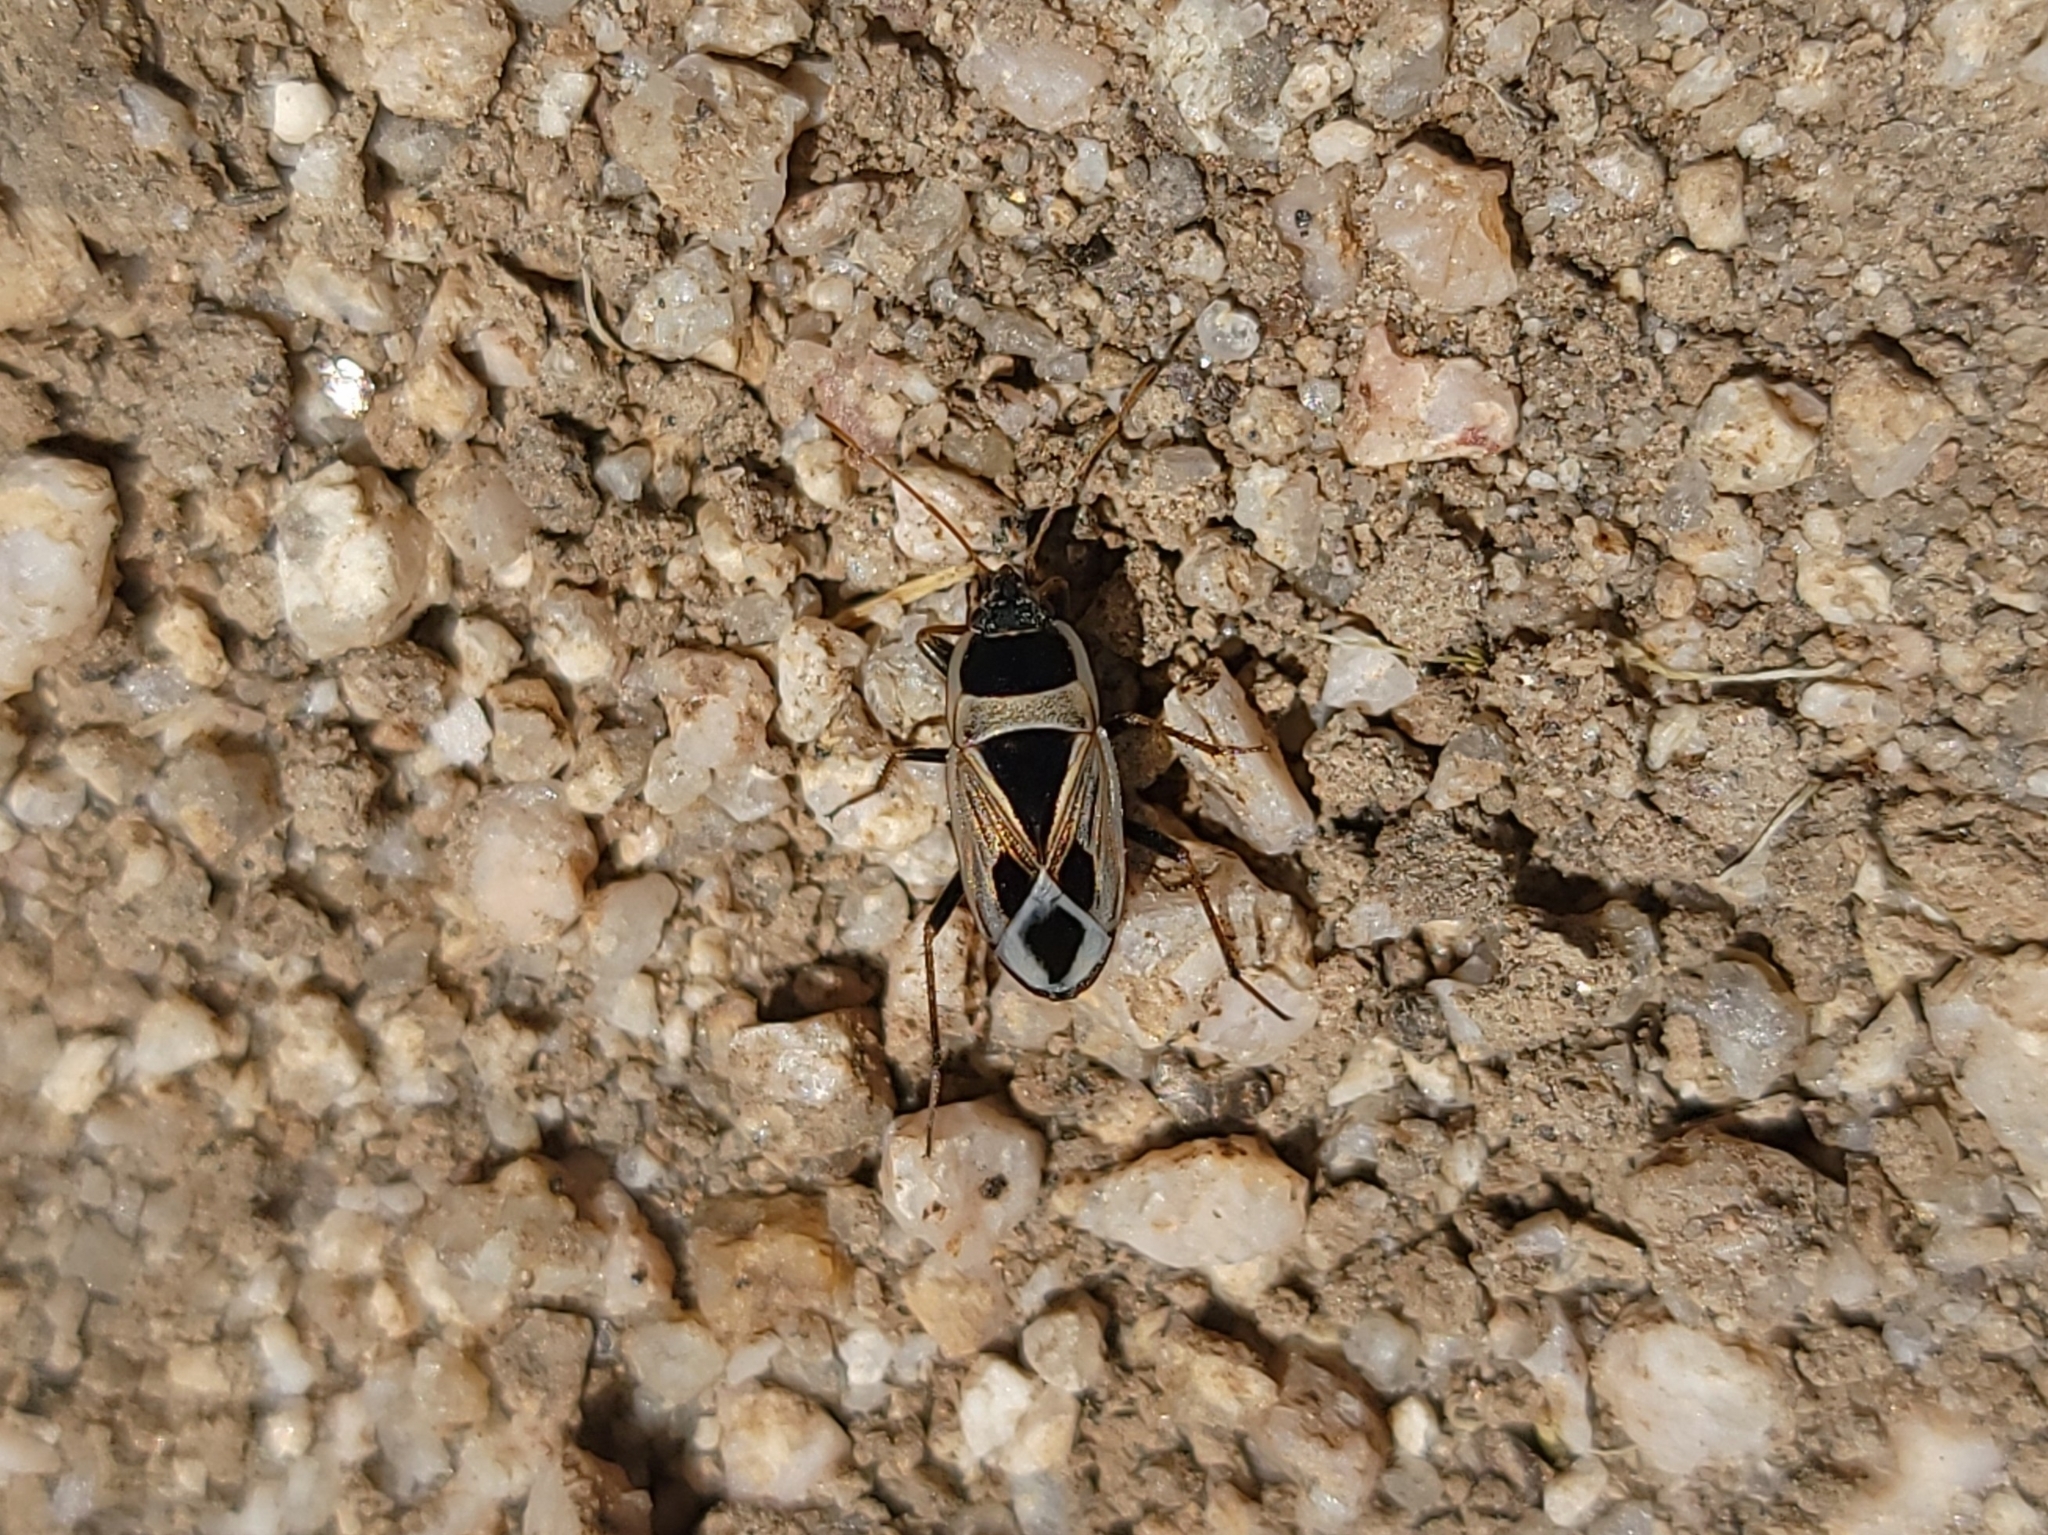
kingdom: Animalia
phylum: Arthropoda
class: Insecta
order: Hemiptera
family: Rhyparochromidae
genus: Xanthochilus
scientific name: Xanthochilus saturnius
